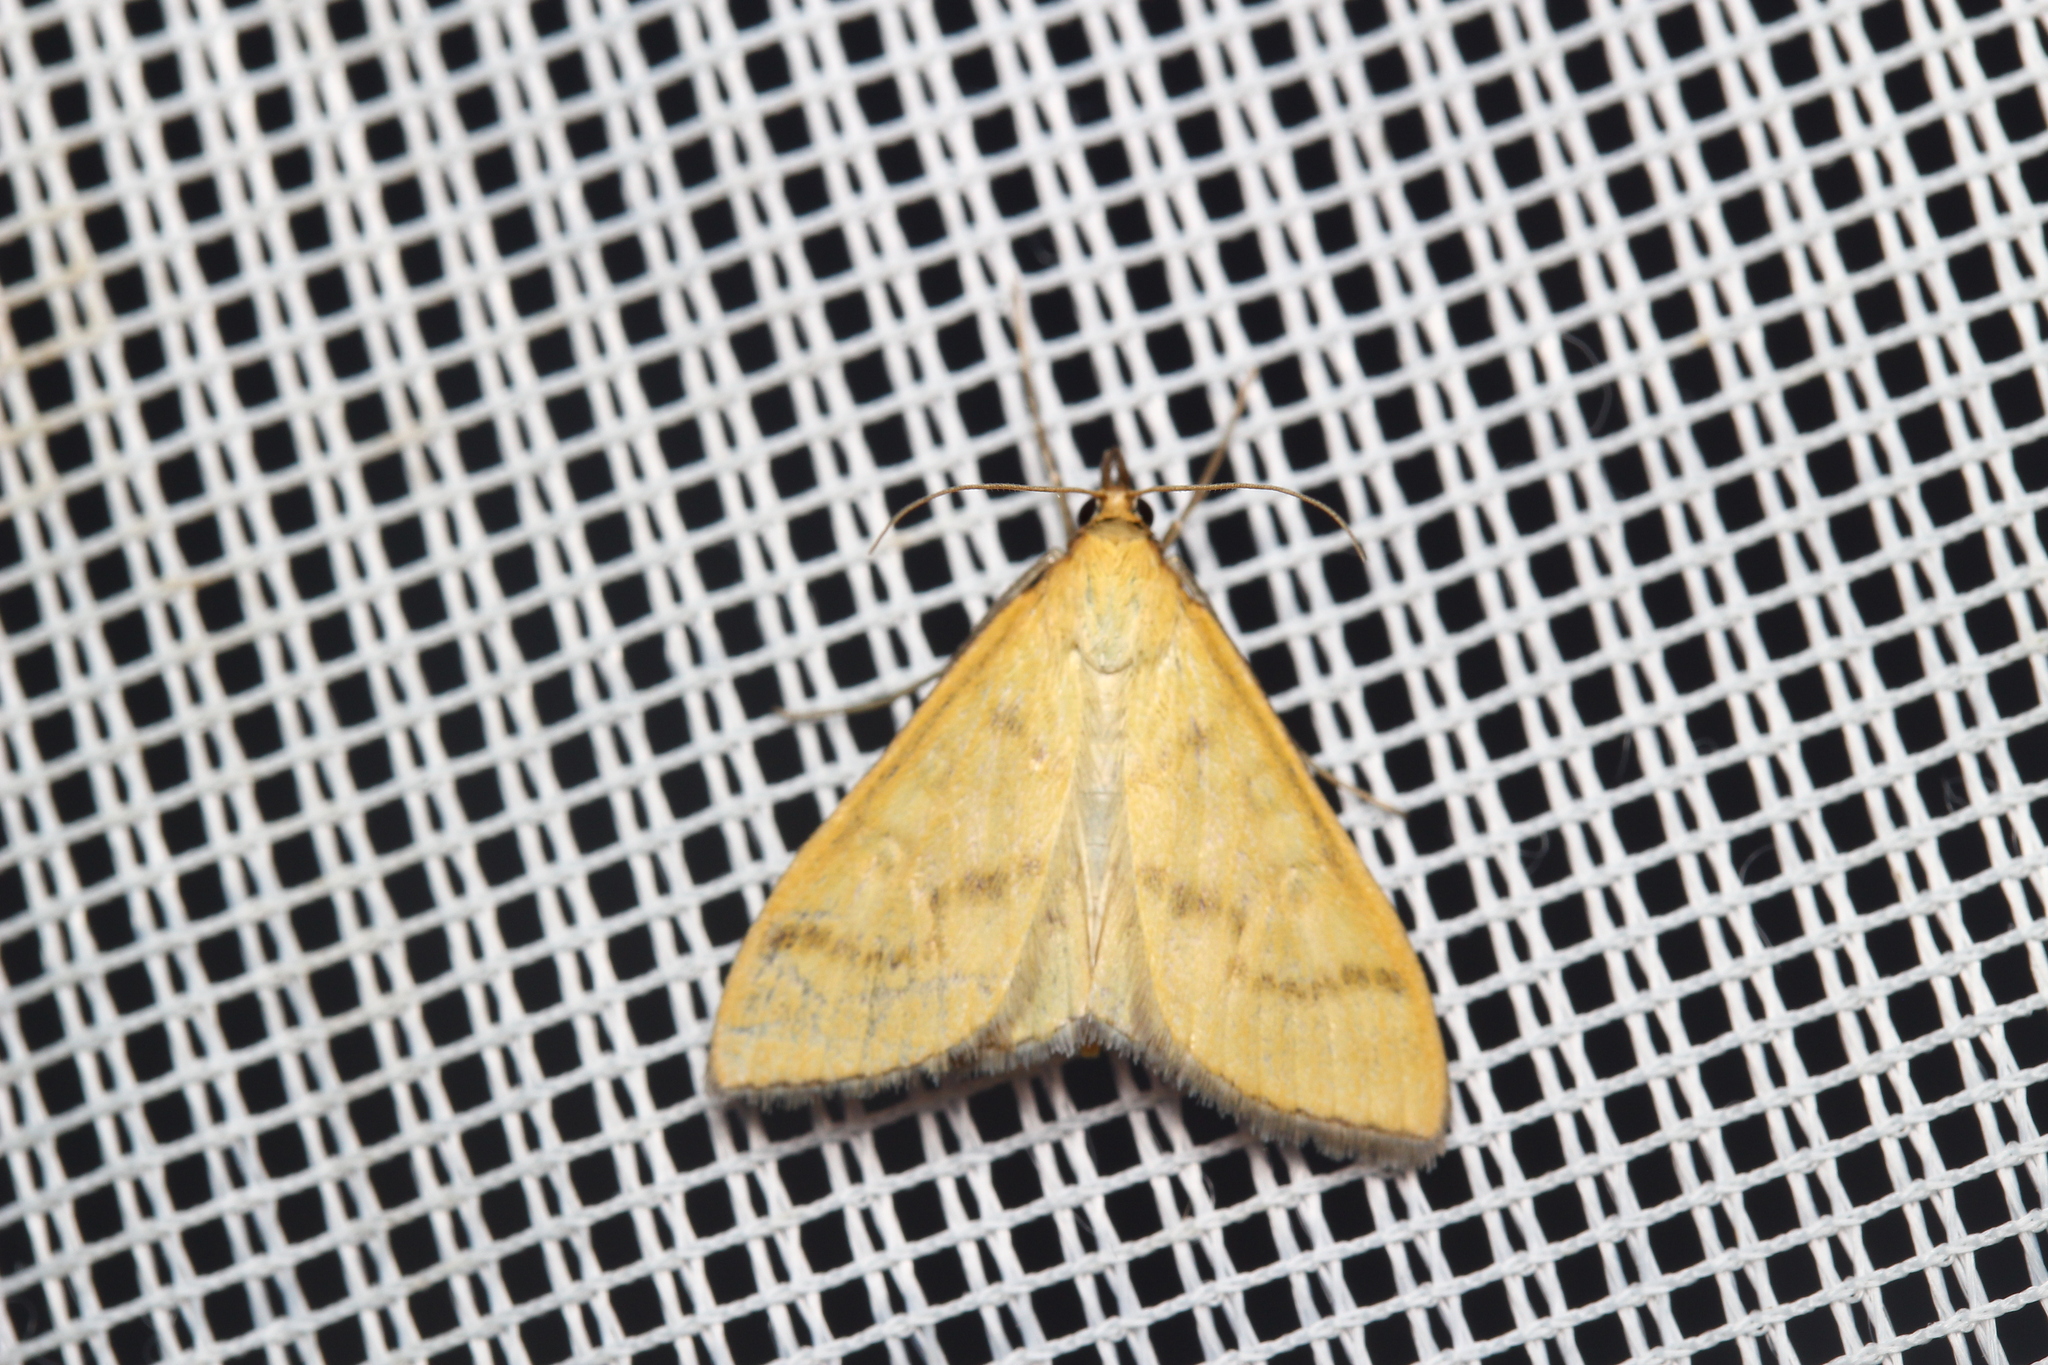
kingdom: Animalia
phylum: Arthropoda
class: Insecta
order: Lepidoptera
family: Crambidae
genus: Mecyna
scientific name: Mecyna flavalis
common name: Yellow pearl
